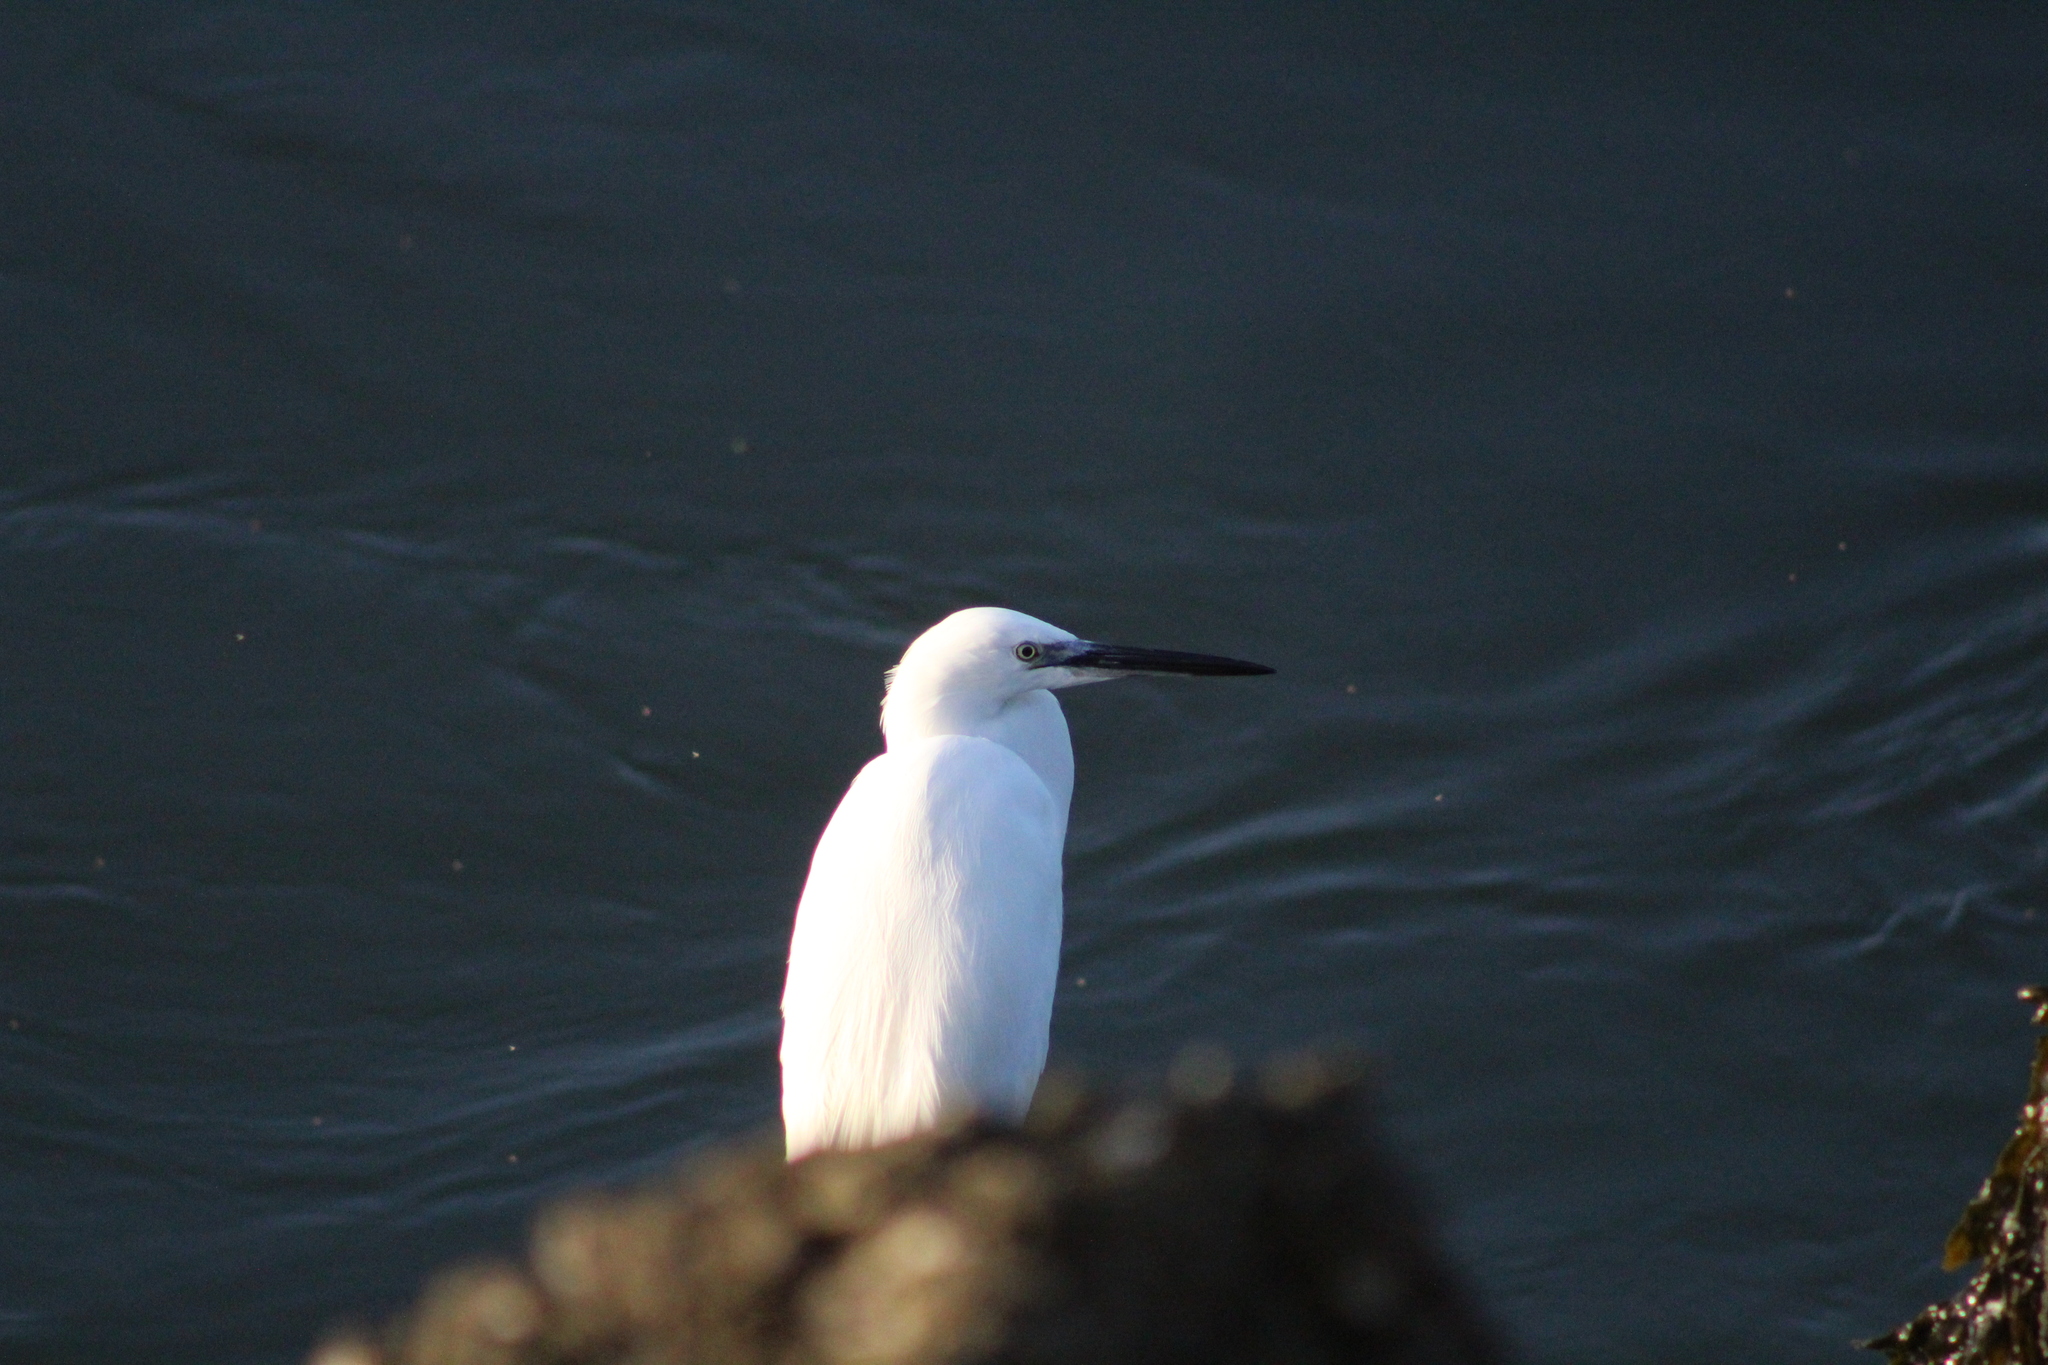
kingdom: Animalia
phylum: Chordata
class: Aves
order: Pelecaniformes
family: Ardeidae
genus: Egretta
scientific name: Egretta garzetta
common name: Little egret
